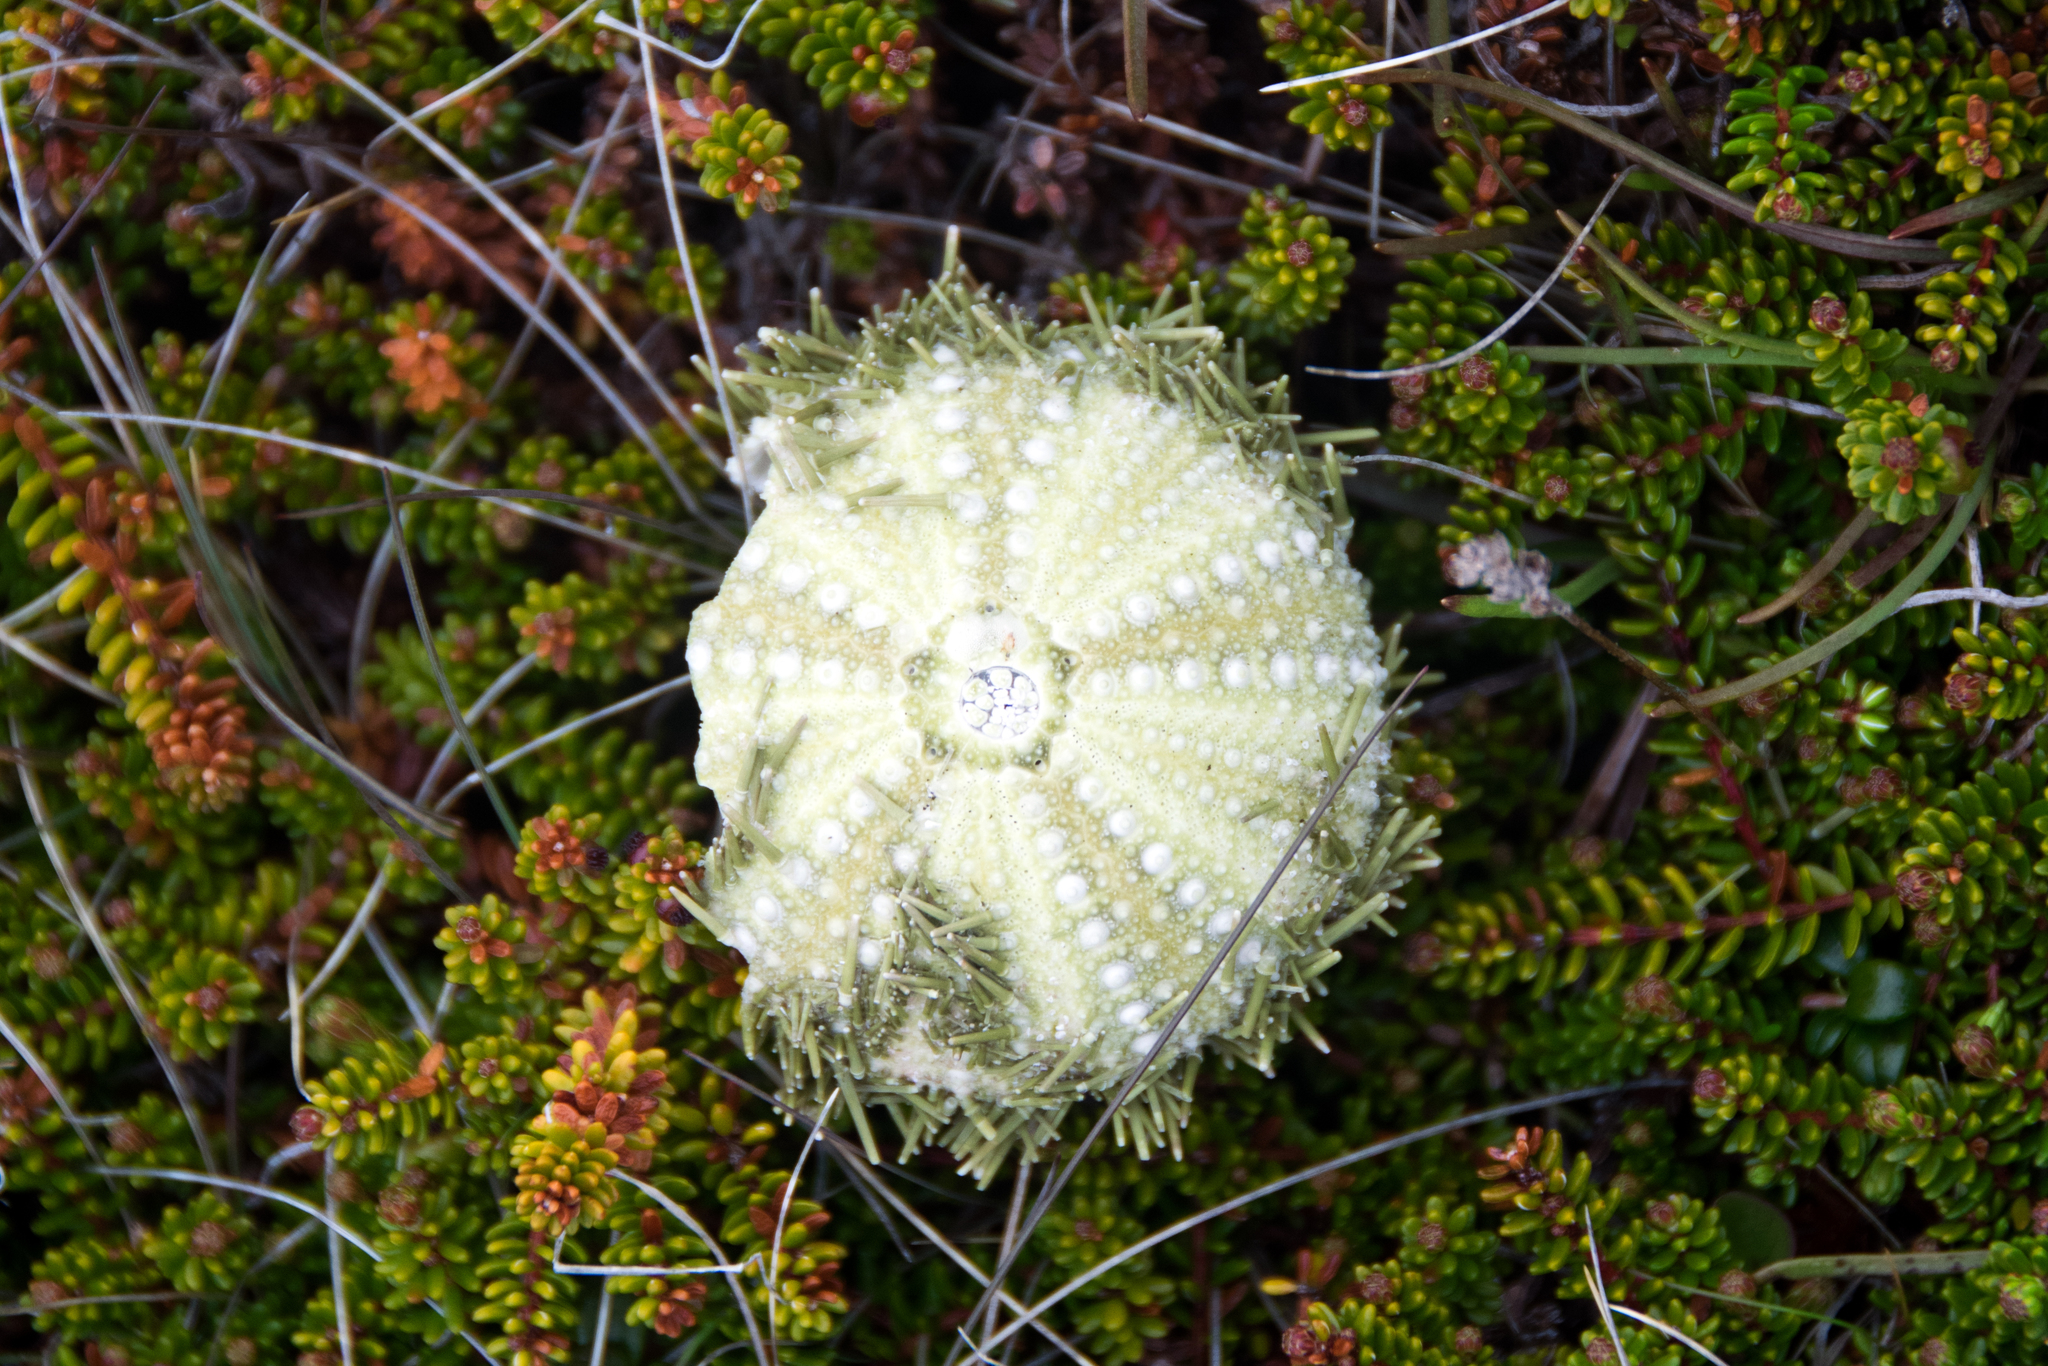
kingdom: Animalia
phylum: Echinodermata
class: Echinoidea
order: Camarodonta
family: Strongylocentrotidae
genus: Strongylocentrotus
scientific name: Strongylocentrotus droebachiensis
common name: Northern sea urchin
